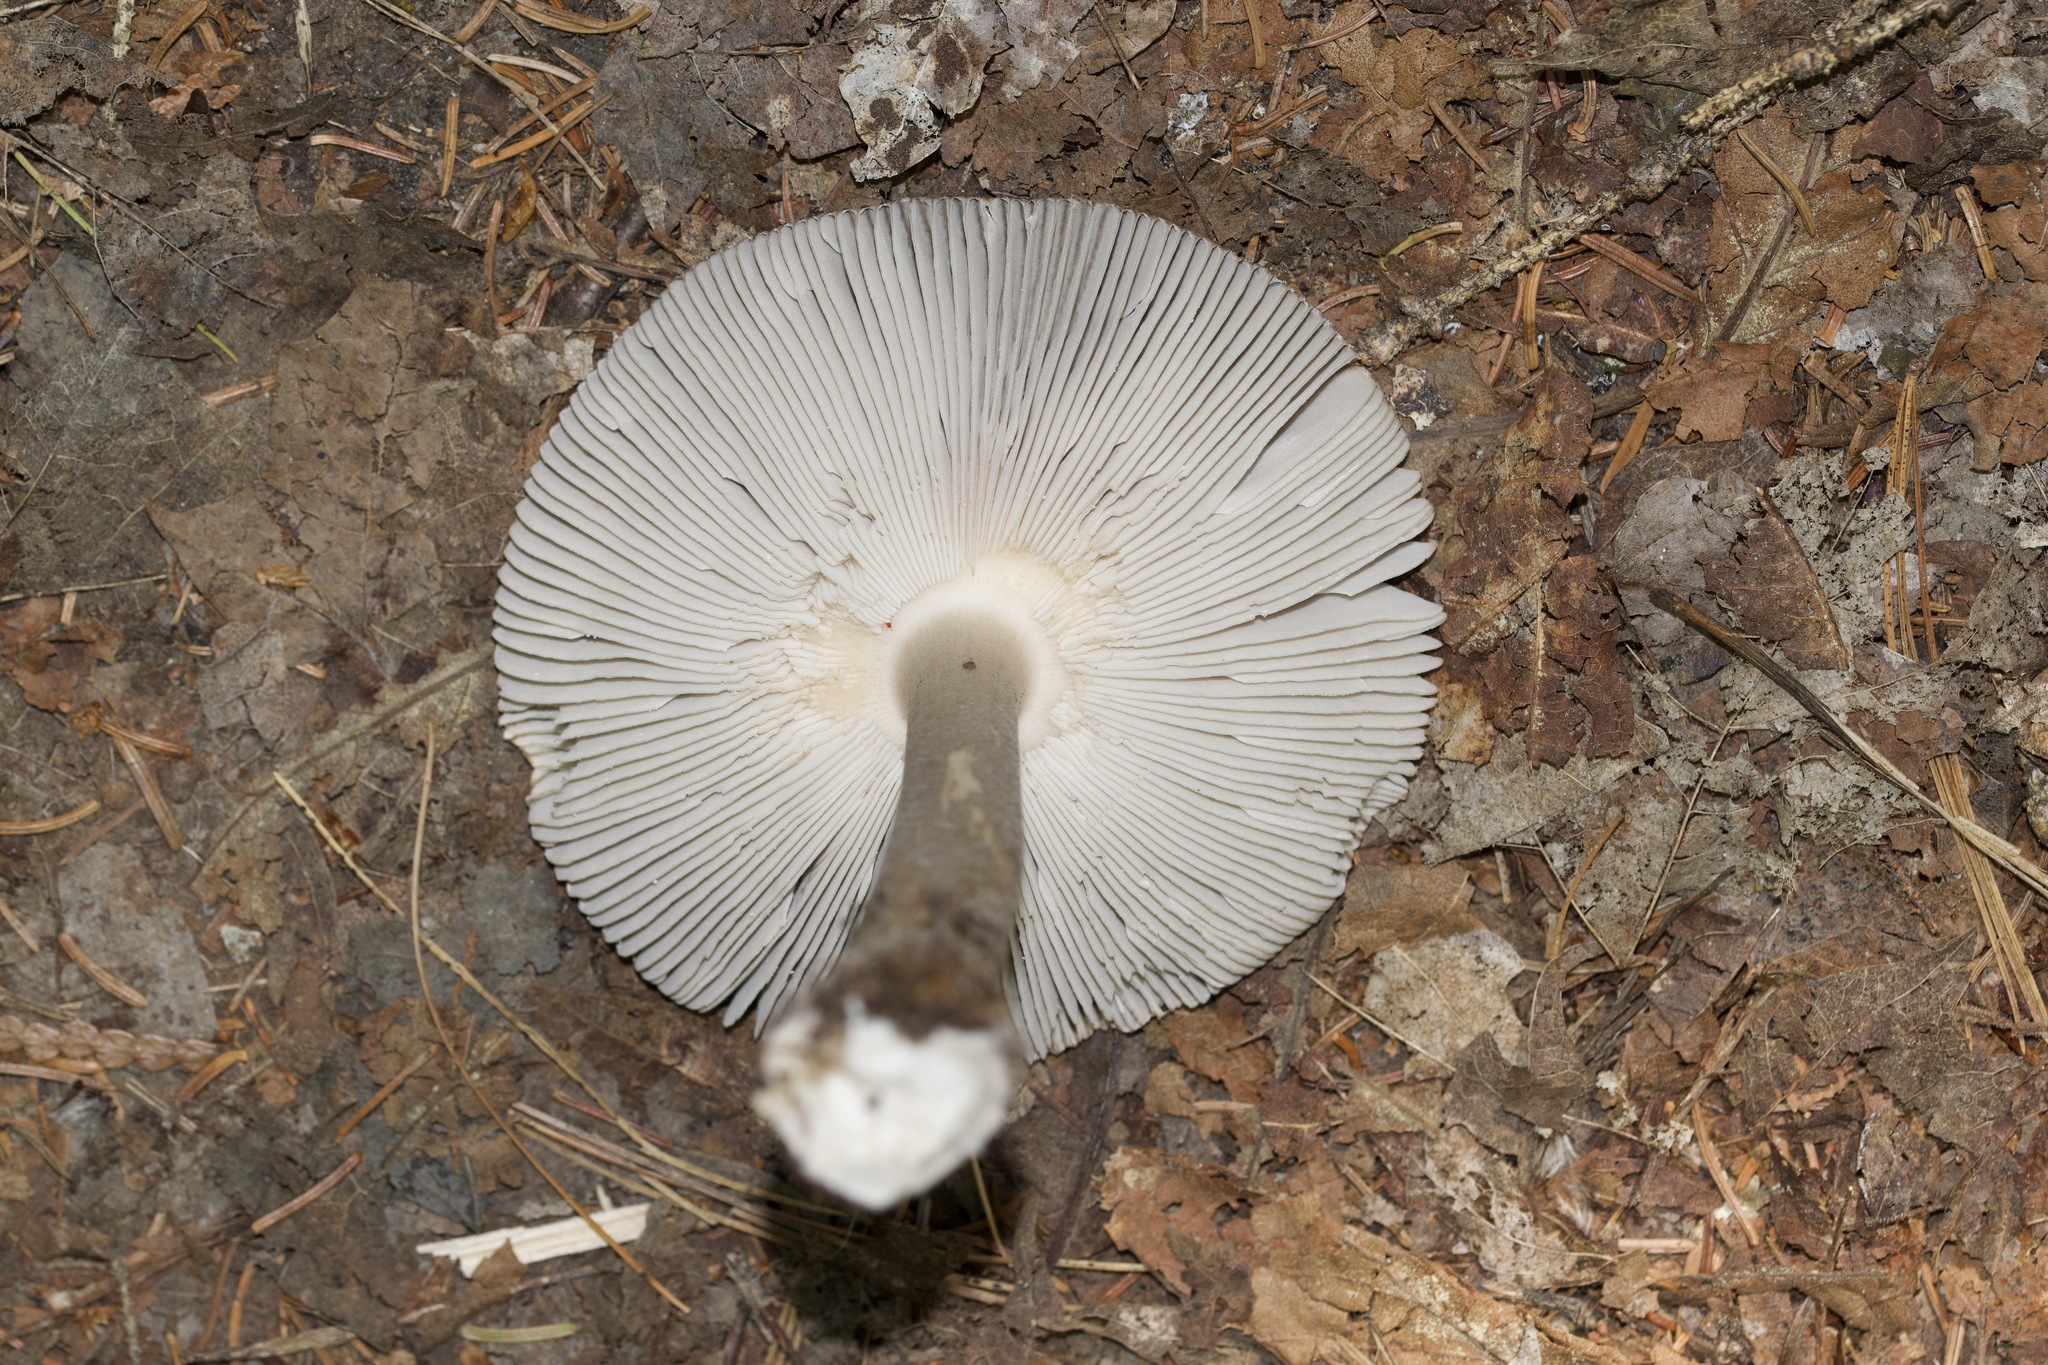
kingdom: Fungi
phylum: Basidiomycota
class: Agaricomycetes
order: Agaricales
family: Amanitaceae
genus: Amanita
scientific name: Amanita rhacopus
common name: Shaggy legged ringless amanita
